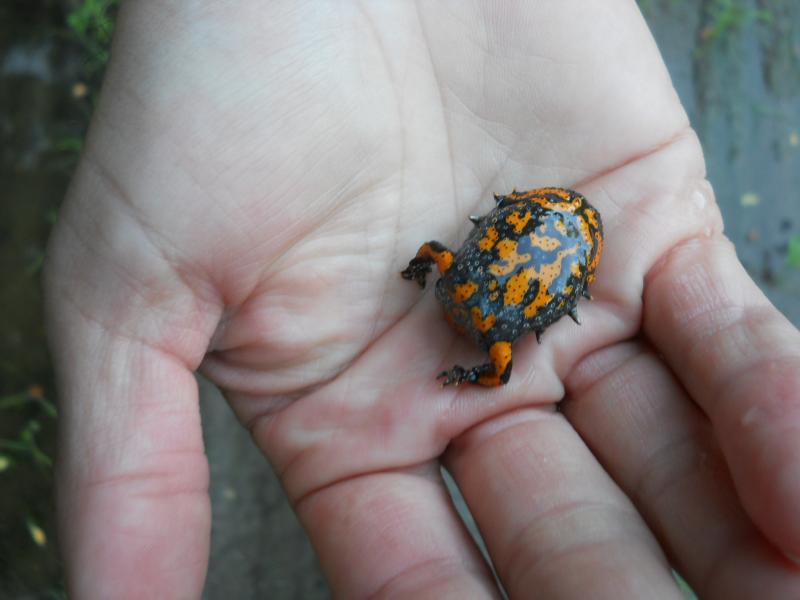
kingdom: Animalia
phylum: Chordata
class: Amphibia
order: Anura
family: Bombinatoridae
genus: Bombina
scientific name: Bombina bombina
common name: Fire-bellied toad
